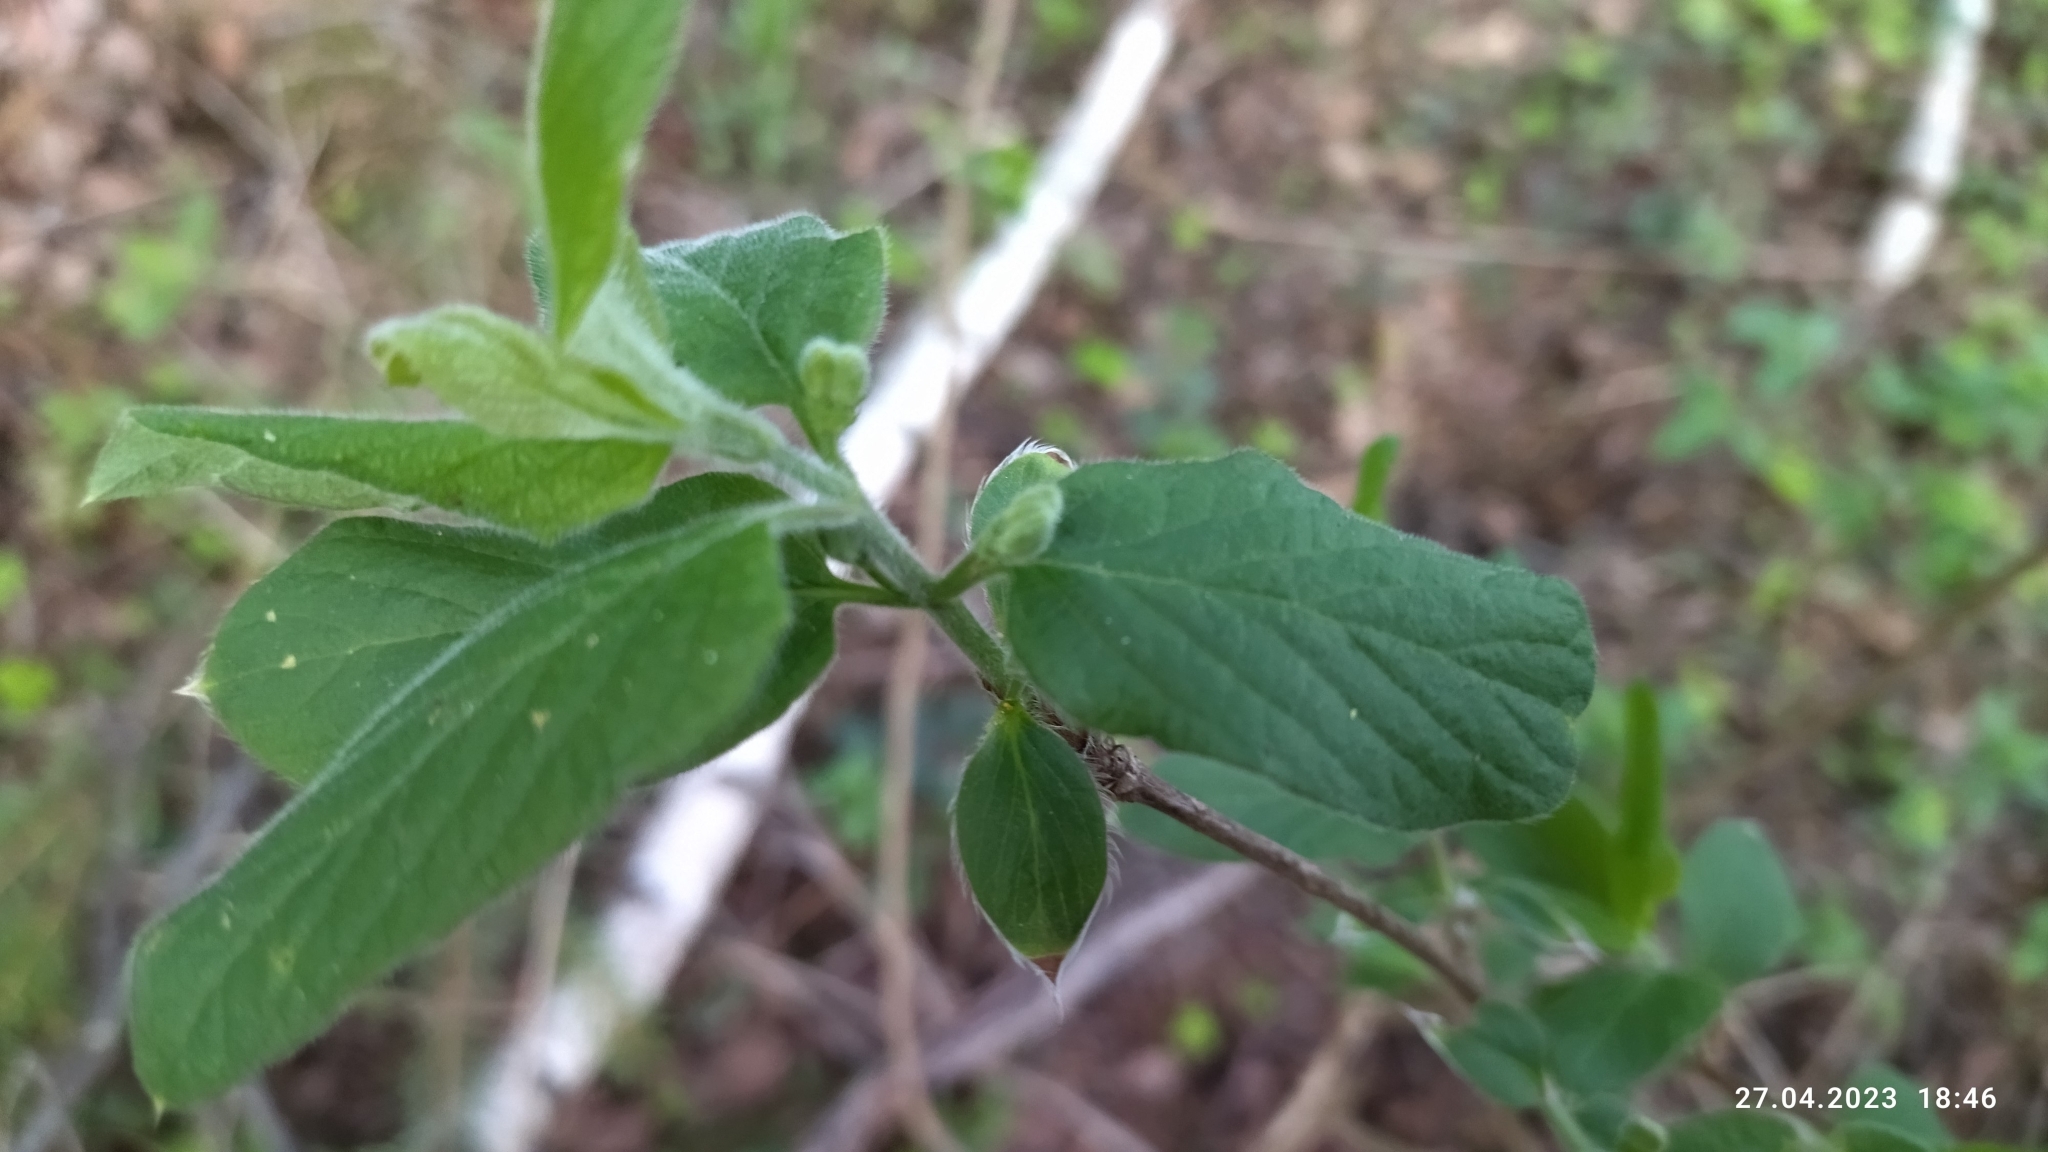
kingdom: Plantae
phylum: Tracheophyta
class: Magnoliopsida
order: Dipsacales
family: Caprifoliaceae
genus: Lonicera
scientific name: Lonicera xylosteum
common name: Fly honeysuckle
